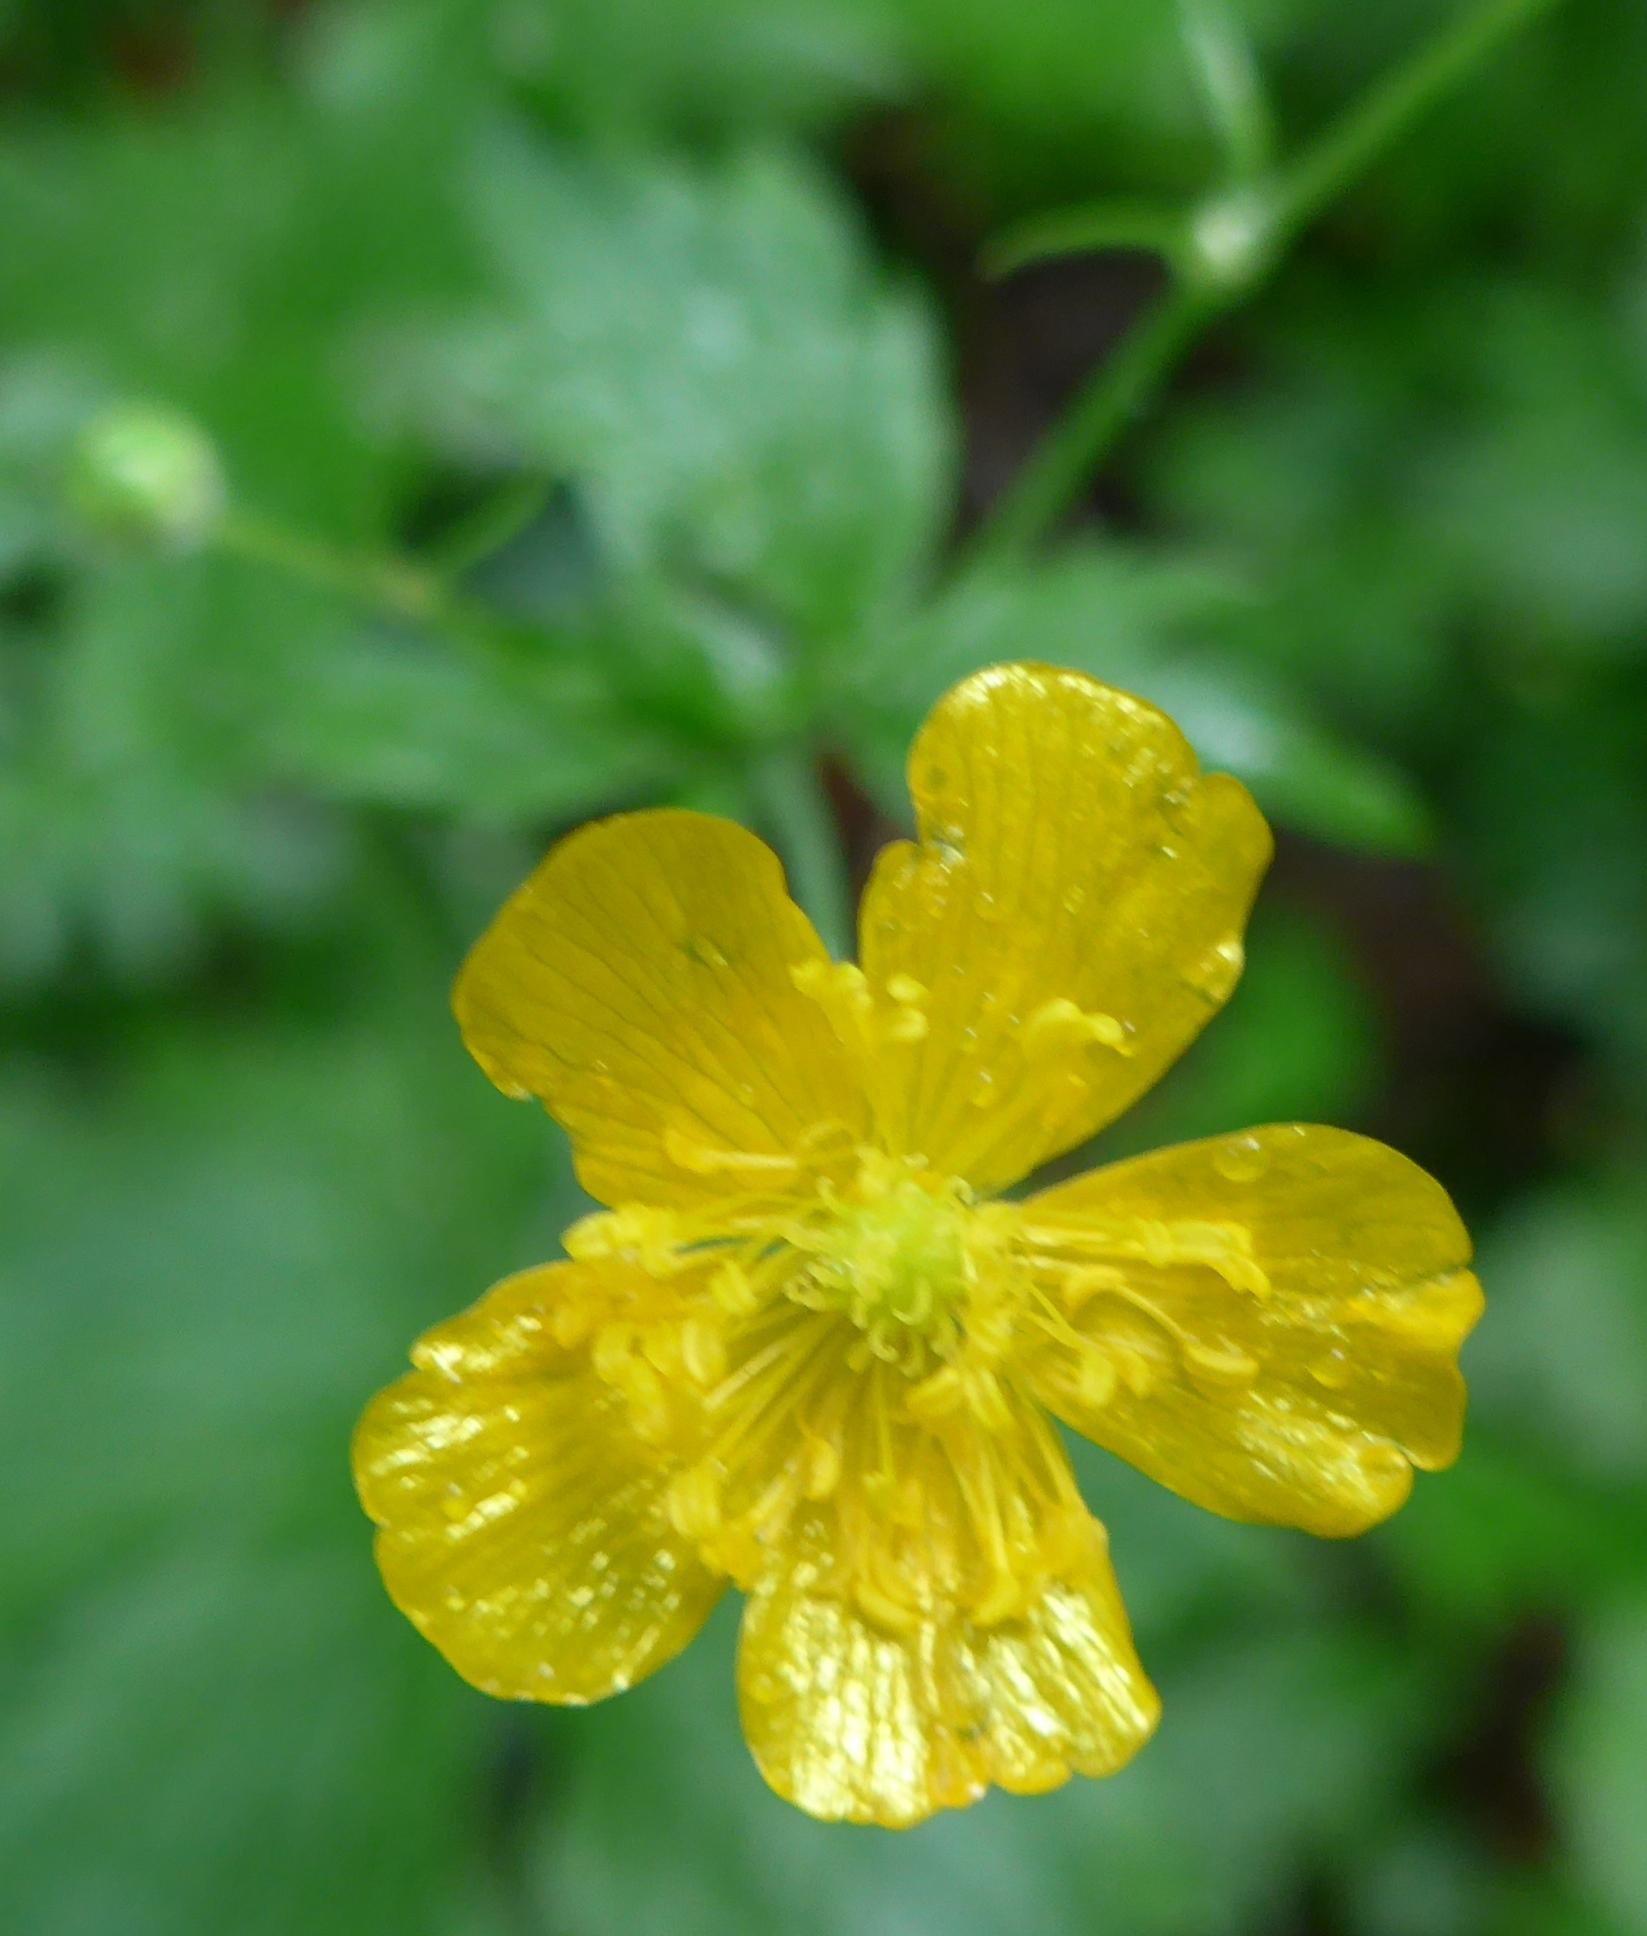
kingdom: Plantae
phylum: Tracheophyta
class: Magnoliopsida
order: Ranunculales
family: Ranunculaceae
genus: Ranunculus
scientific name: Ranunculus lanuginosus
